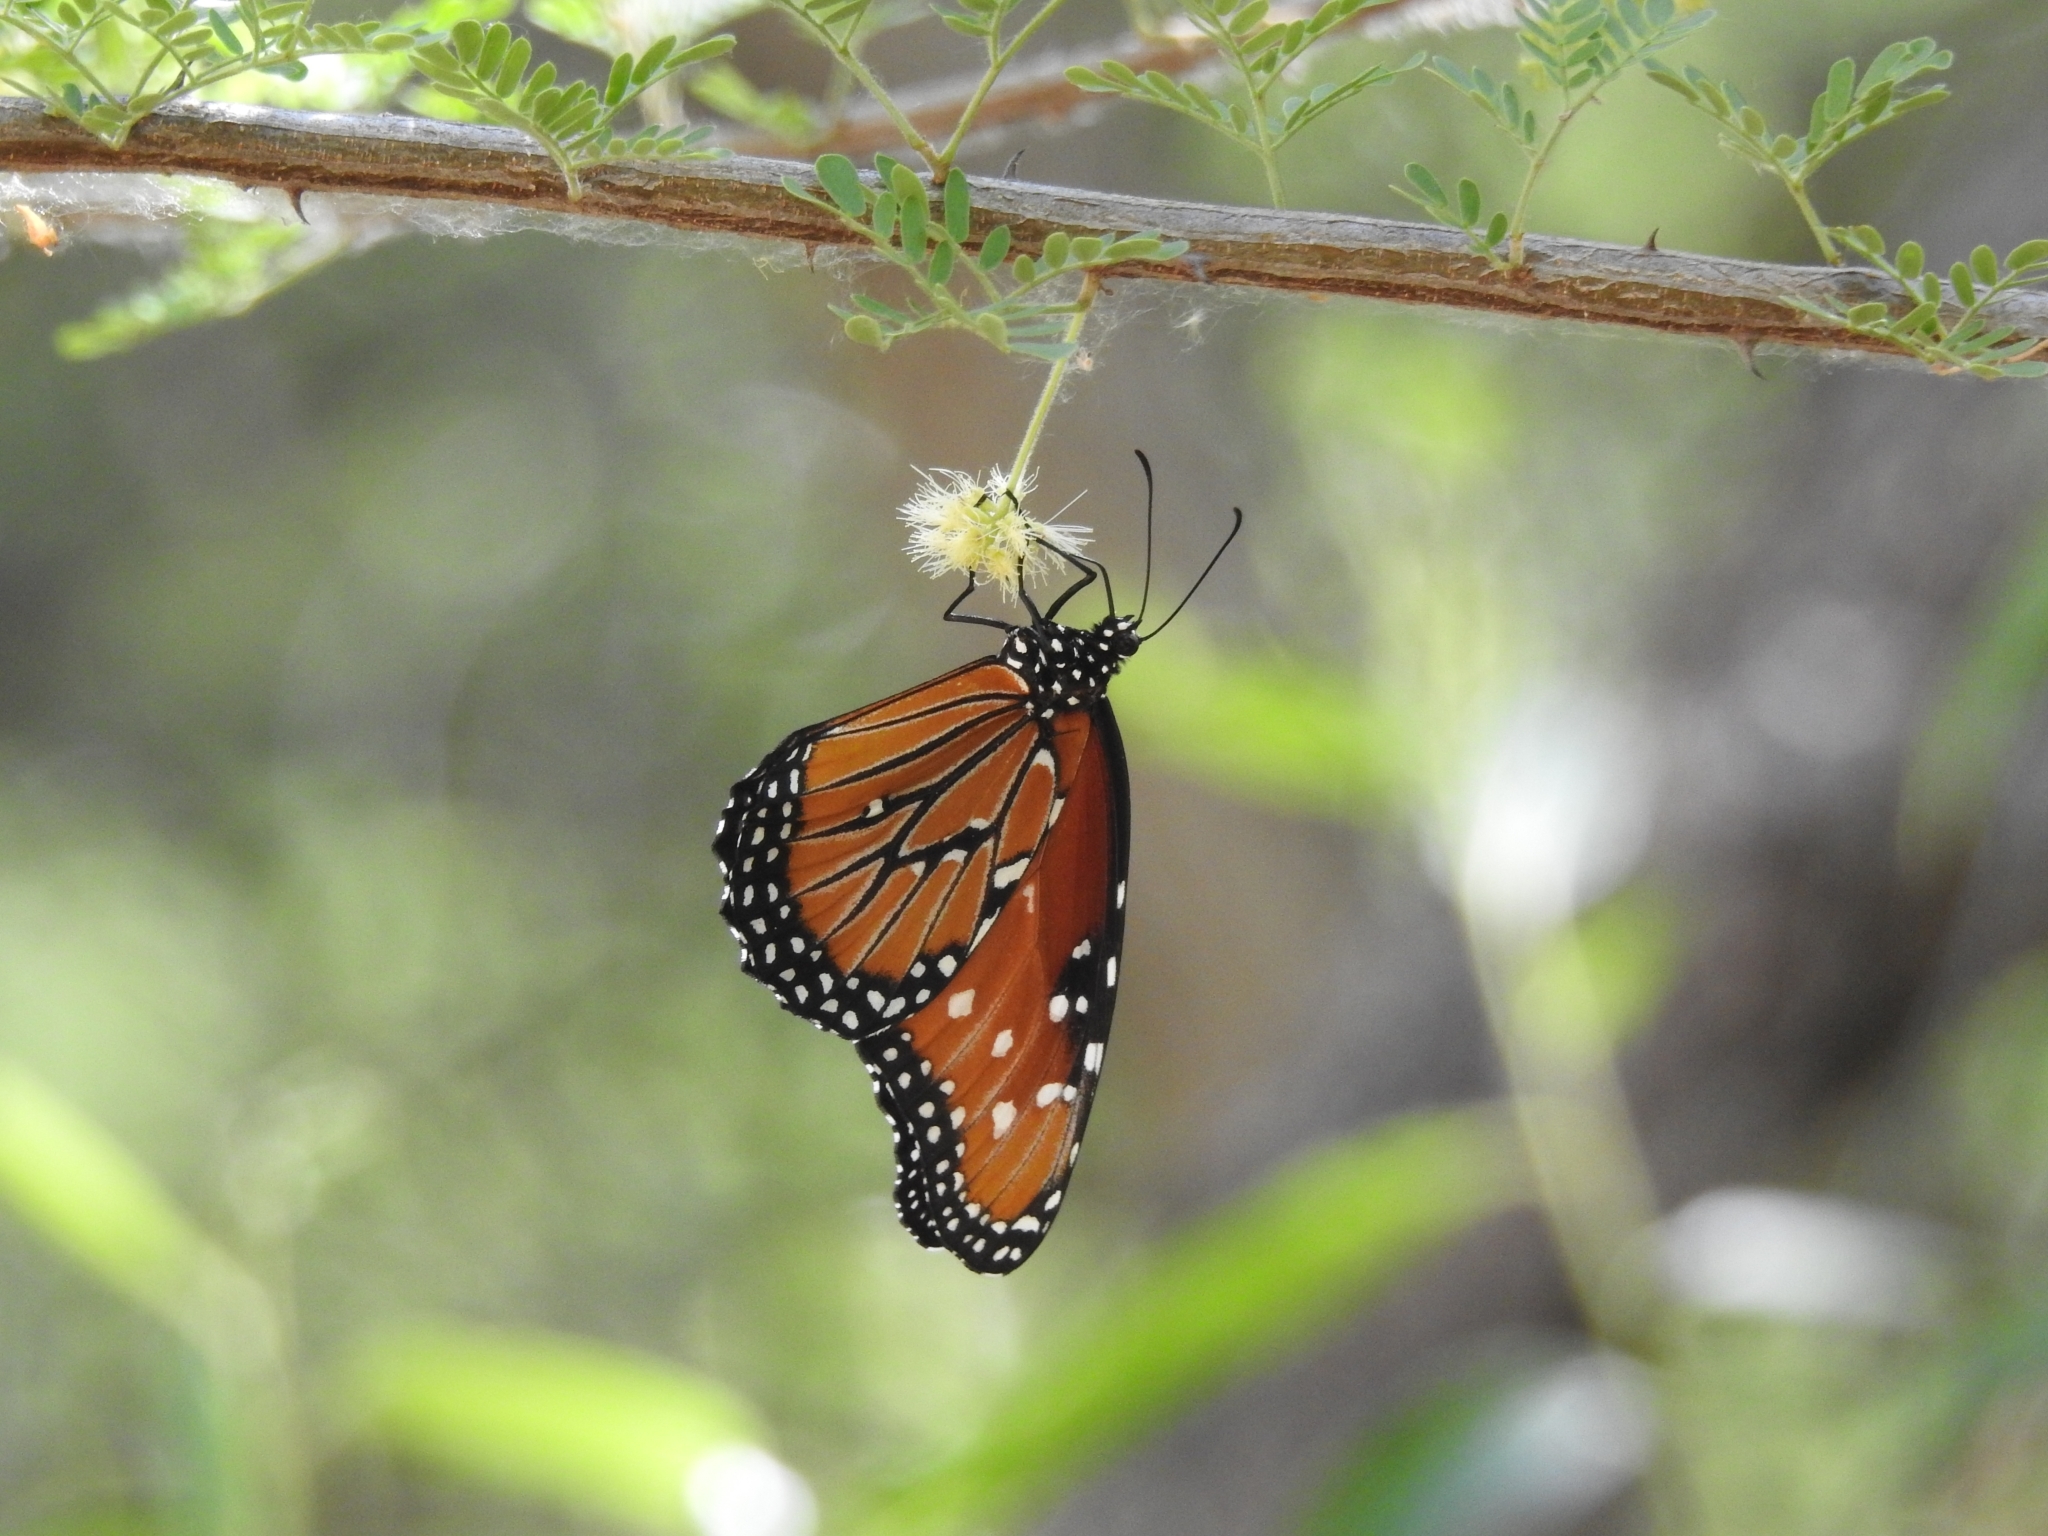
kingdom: Animalia
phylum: Arthropoda
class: Insecta
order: Lepidoptera
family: Nymphalidae
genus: Danaus
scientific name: Danaus gilippus
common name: Queen
